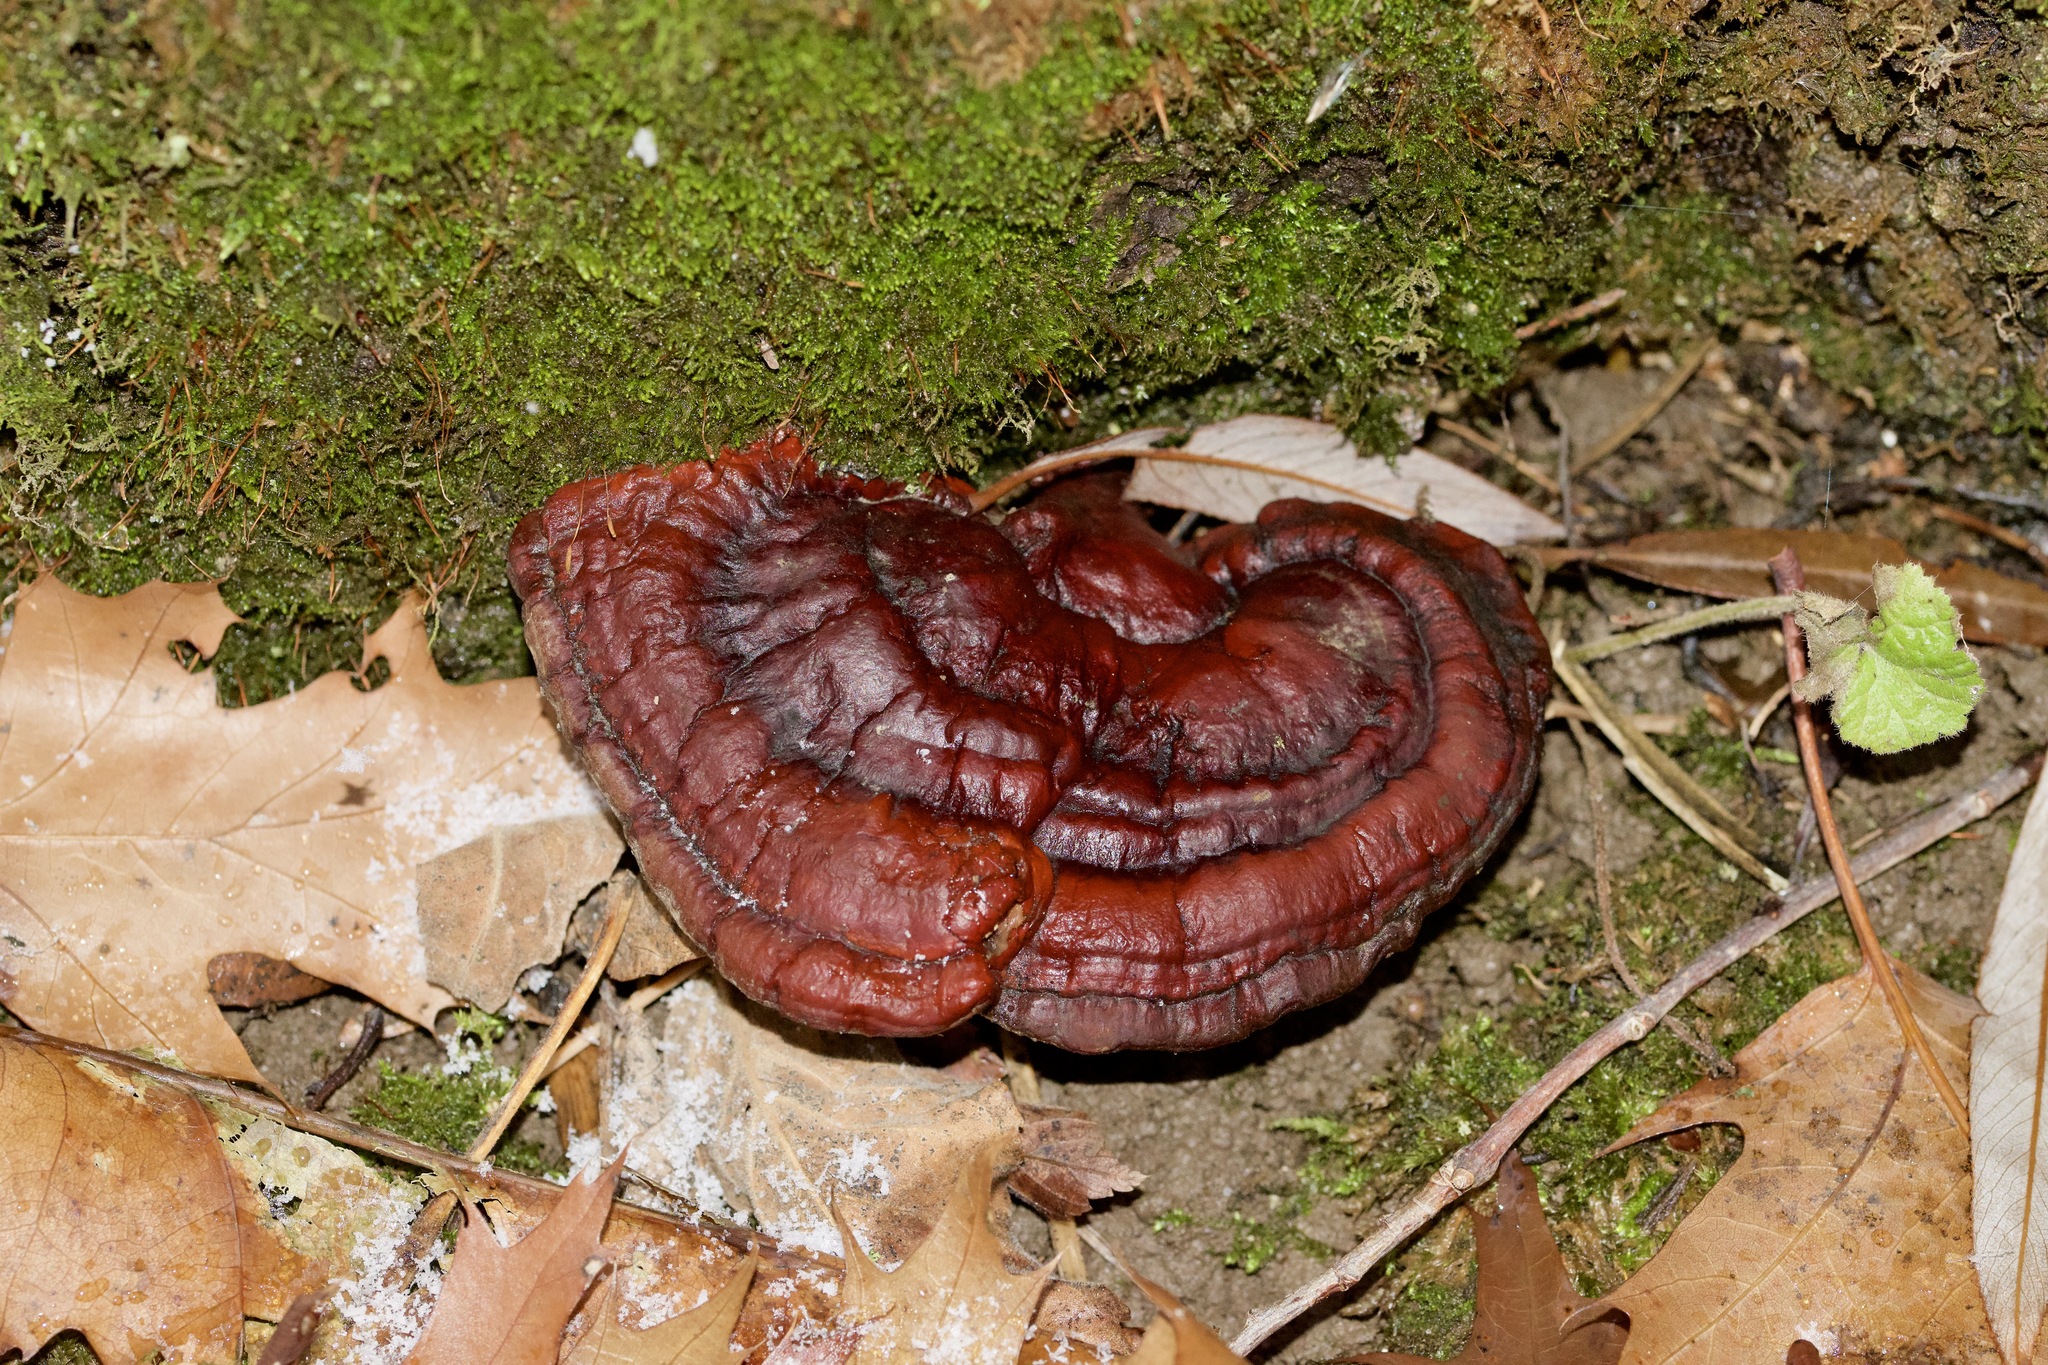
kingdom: Fungi
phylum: Basidiomycota
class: Agaricomycetes
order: Polyporales
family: Polyporaceae
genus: Ganoderma
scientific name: Ganoderma resinaceum
